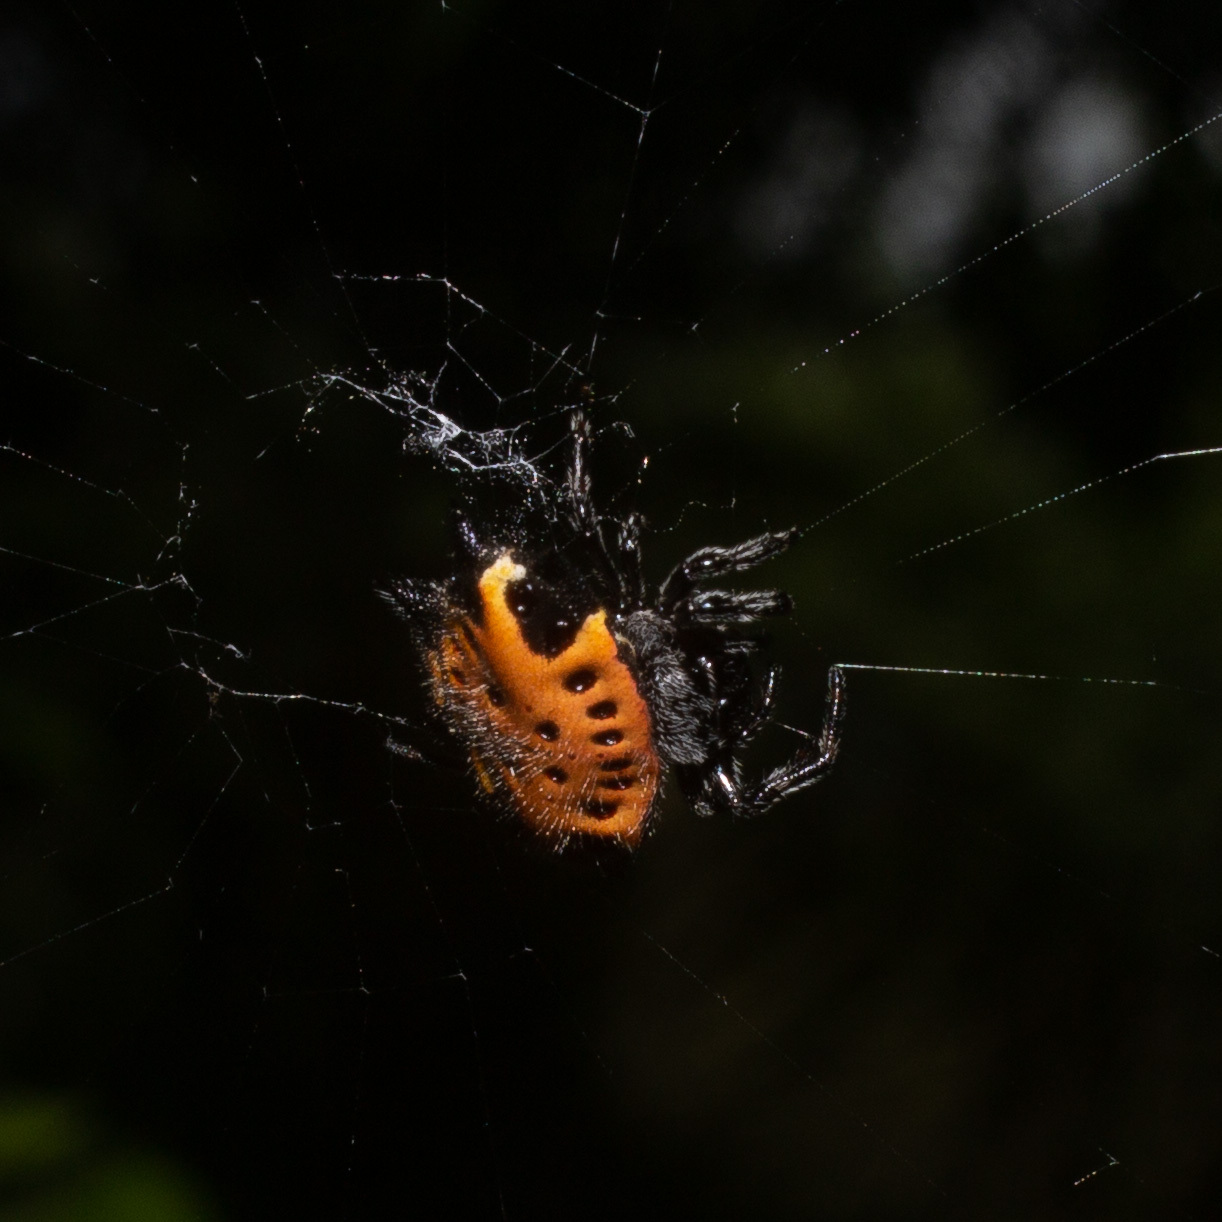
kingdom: Animalia
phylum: Arthropoda
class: Arachnida
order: Araneae
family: Araneidae
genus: Gasteracantha
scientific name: Gasteracantha cancriformis
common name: Orb weavers
